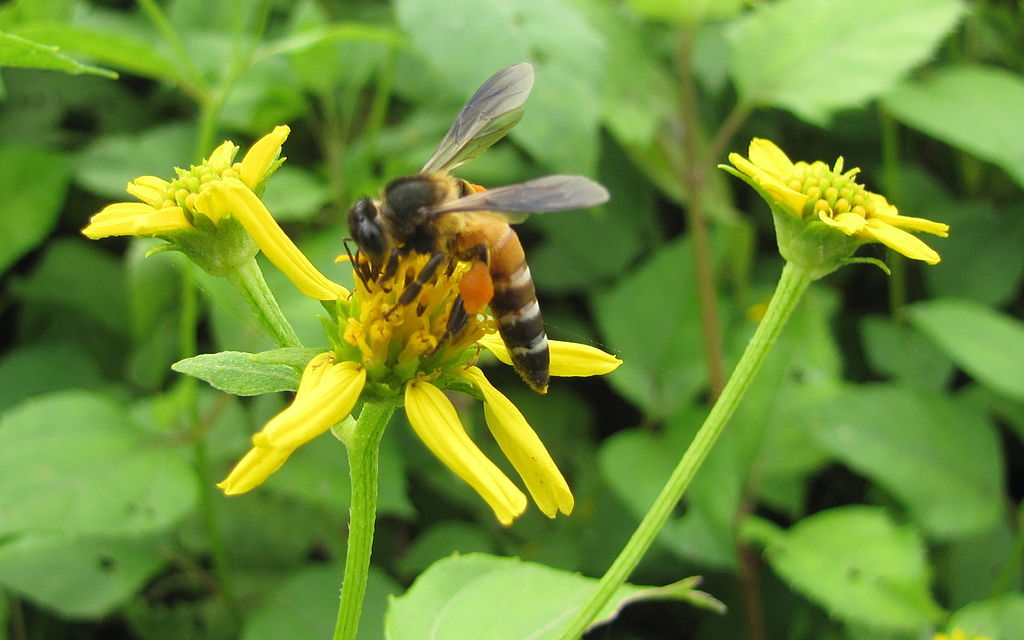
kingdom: Animalia
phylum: Arthropoda
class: Insecta
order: Hymenoptera
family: Apidae
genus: Apis
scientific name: Apis dorsata
